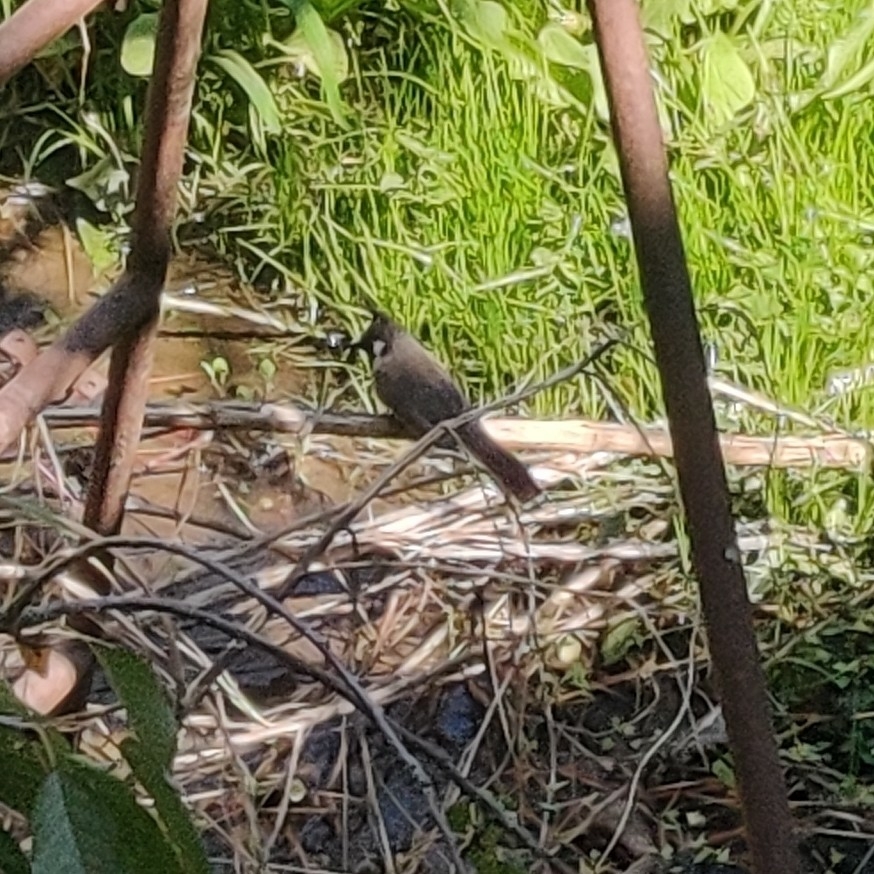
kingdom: Animalia
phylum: Chordata
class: Aves
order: Passeriformes
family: Pycnonotidae
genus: Pycnonotus
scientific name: Pycnonotus leucogenys
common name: Himalayan bulbul
